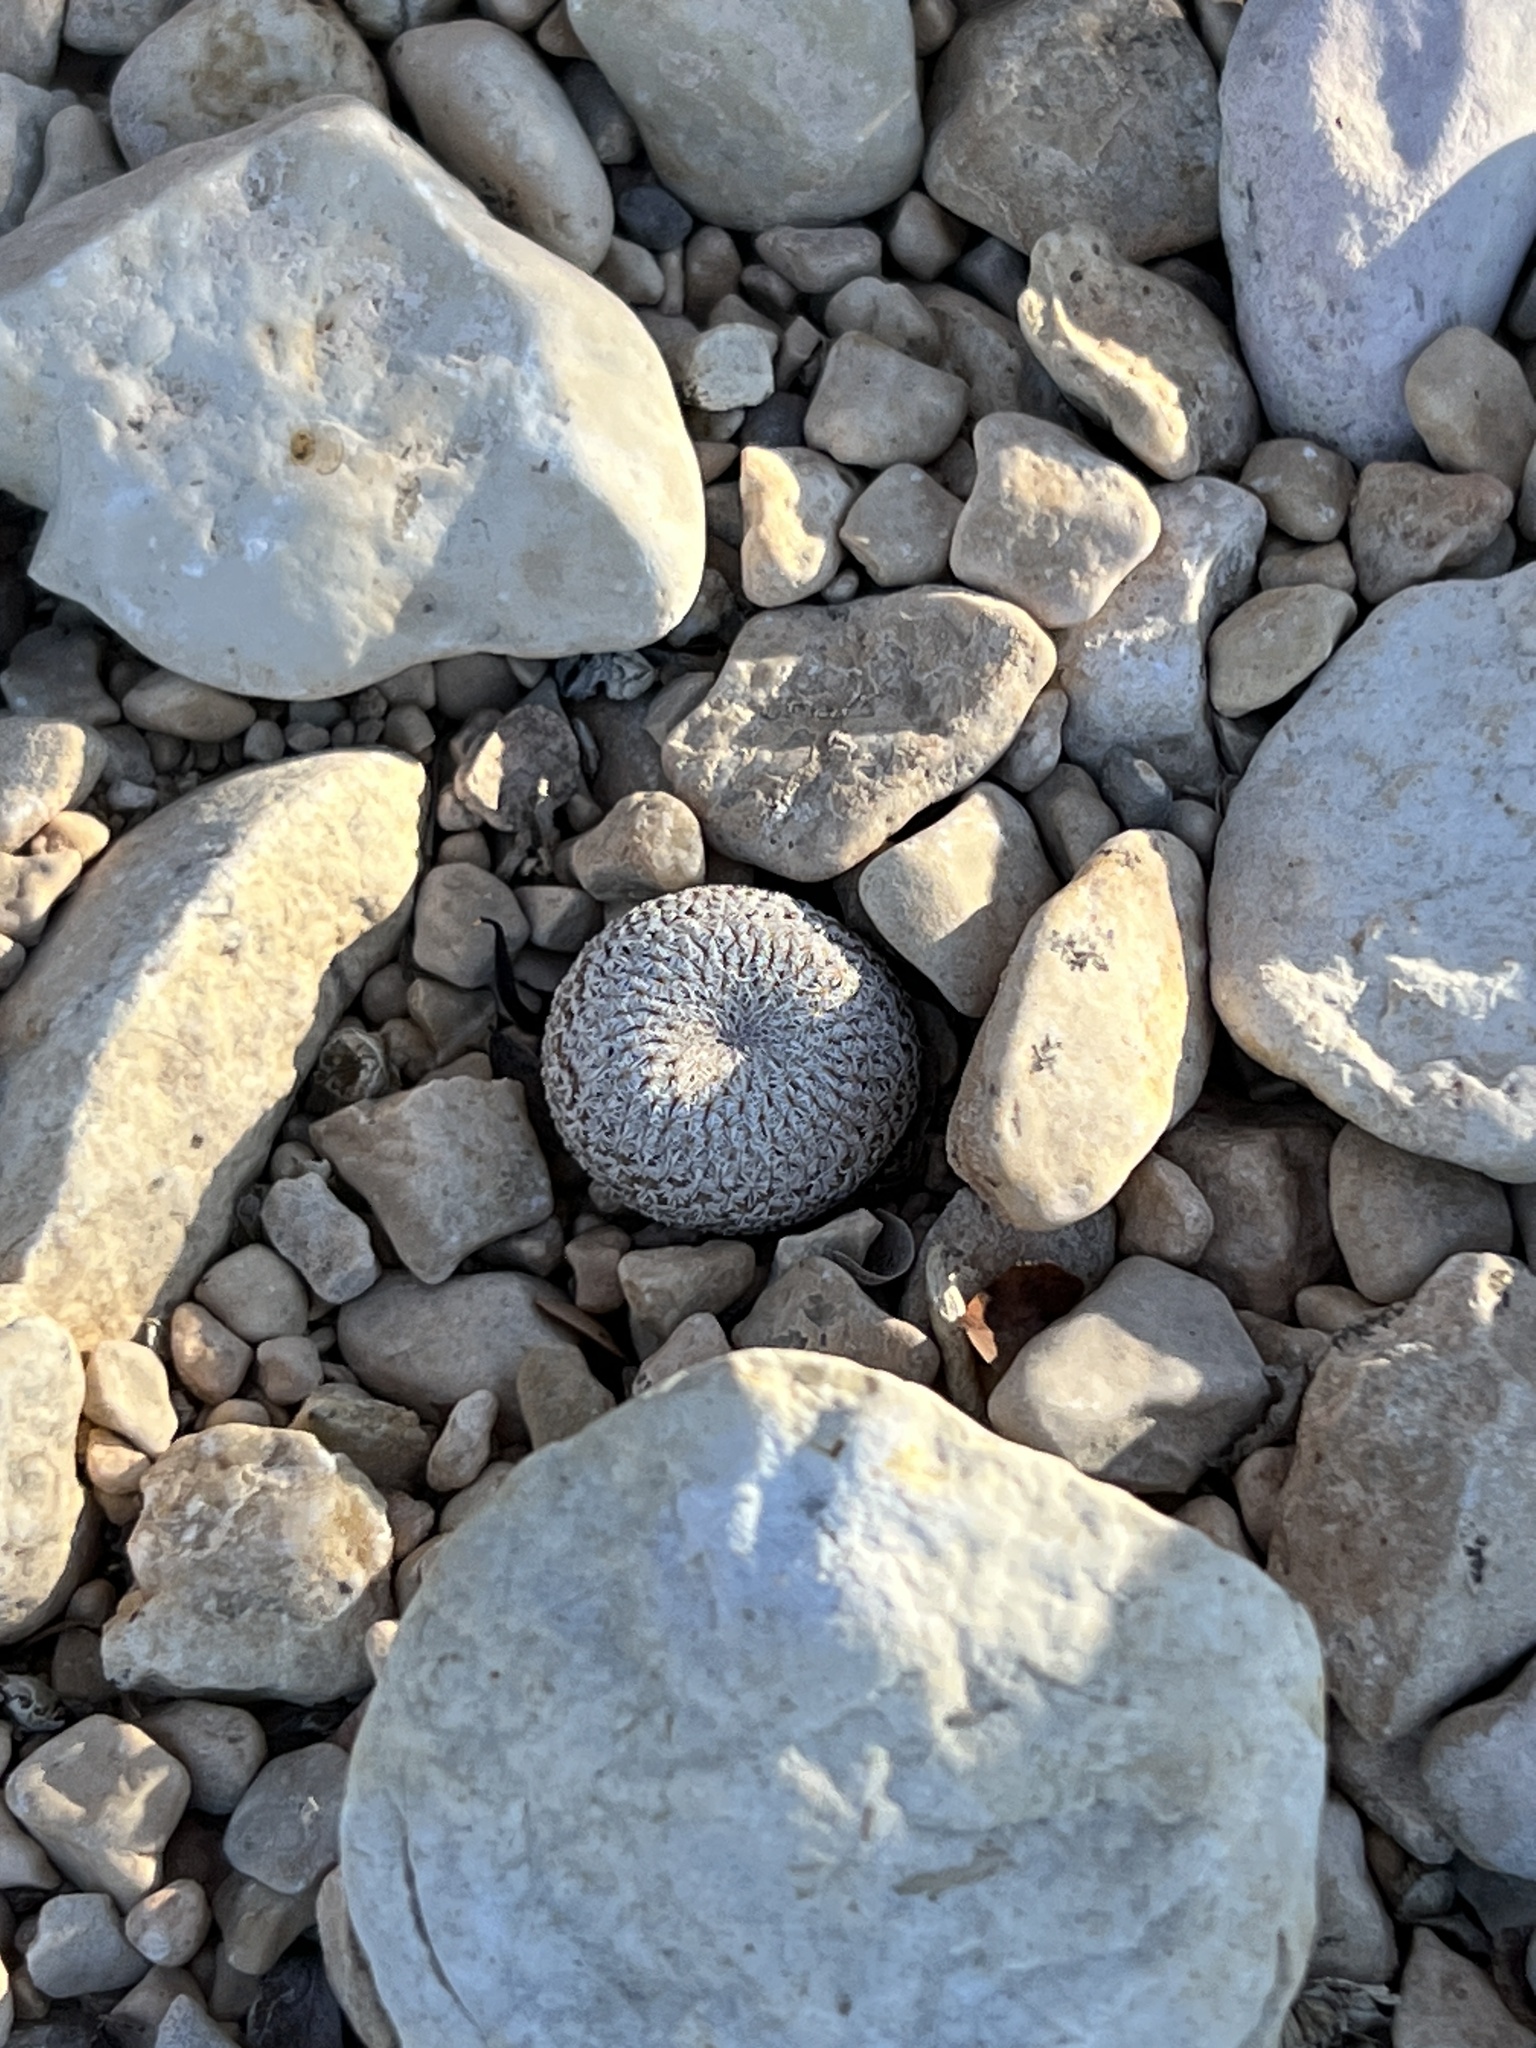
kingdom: Plantae
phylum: Tracheophyta
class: Magnoliopsida
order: Caryophyllales
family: Cactaceae
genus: Epithelantha
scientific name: Epithelantha micromeris
